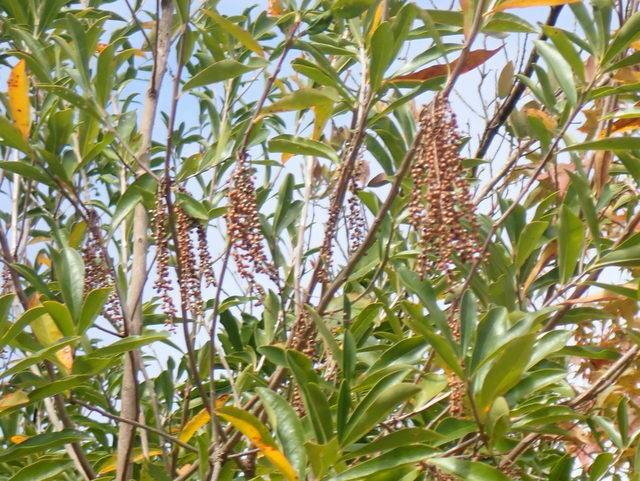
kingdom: Plantae
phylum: Tracheophyta
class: Magnoliopsida
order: Ericales
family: Cyrillaceae
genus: Cyrilla
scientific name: Cyrilla racemiflora
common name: Black titi
